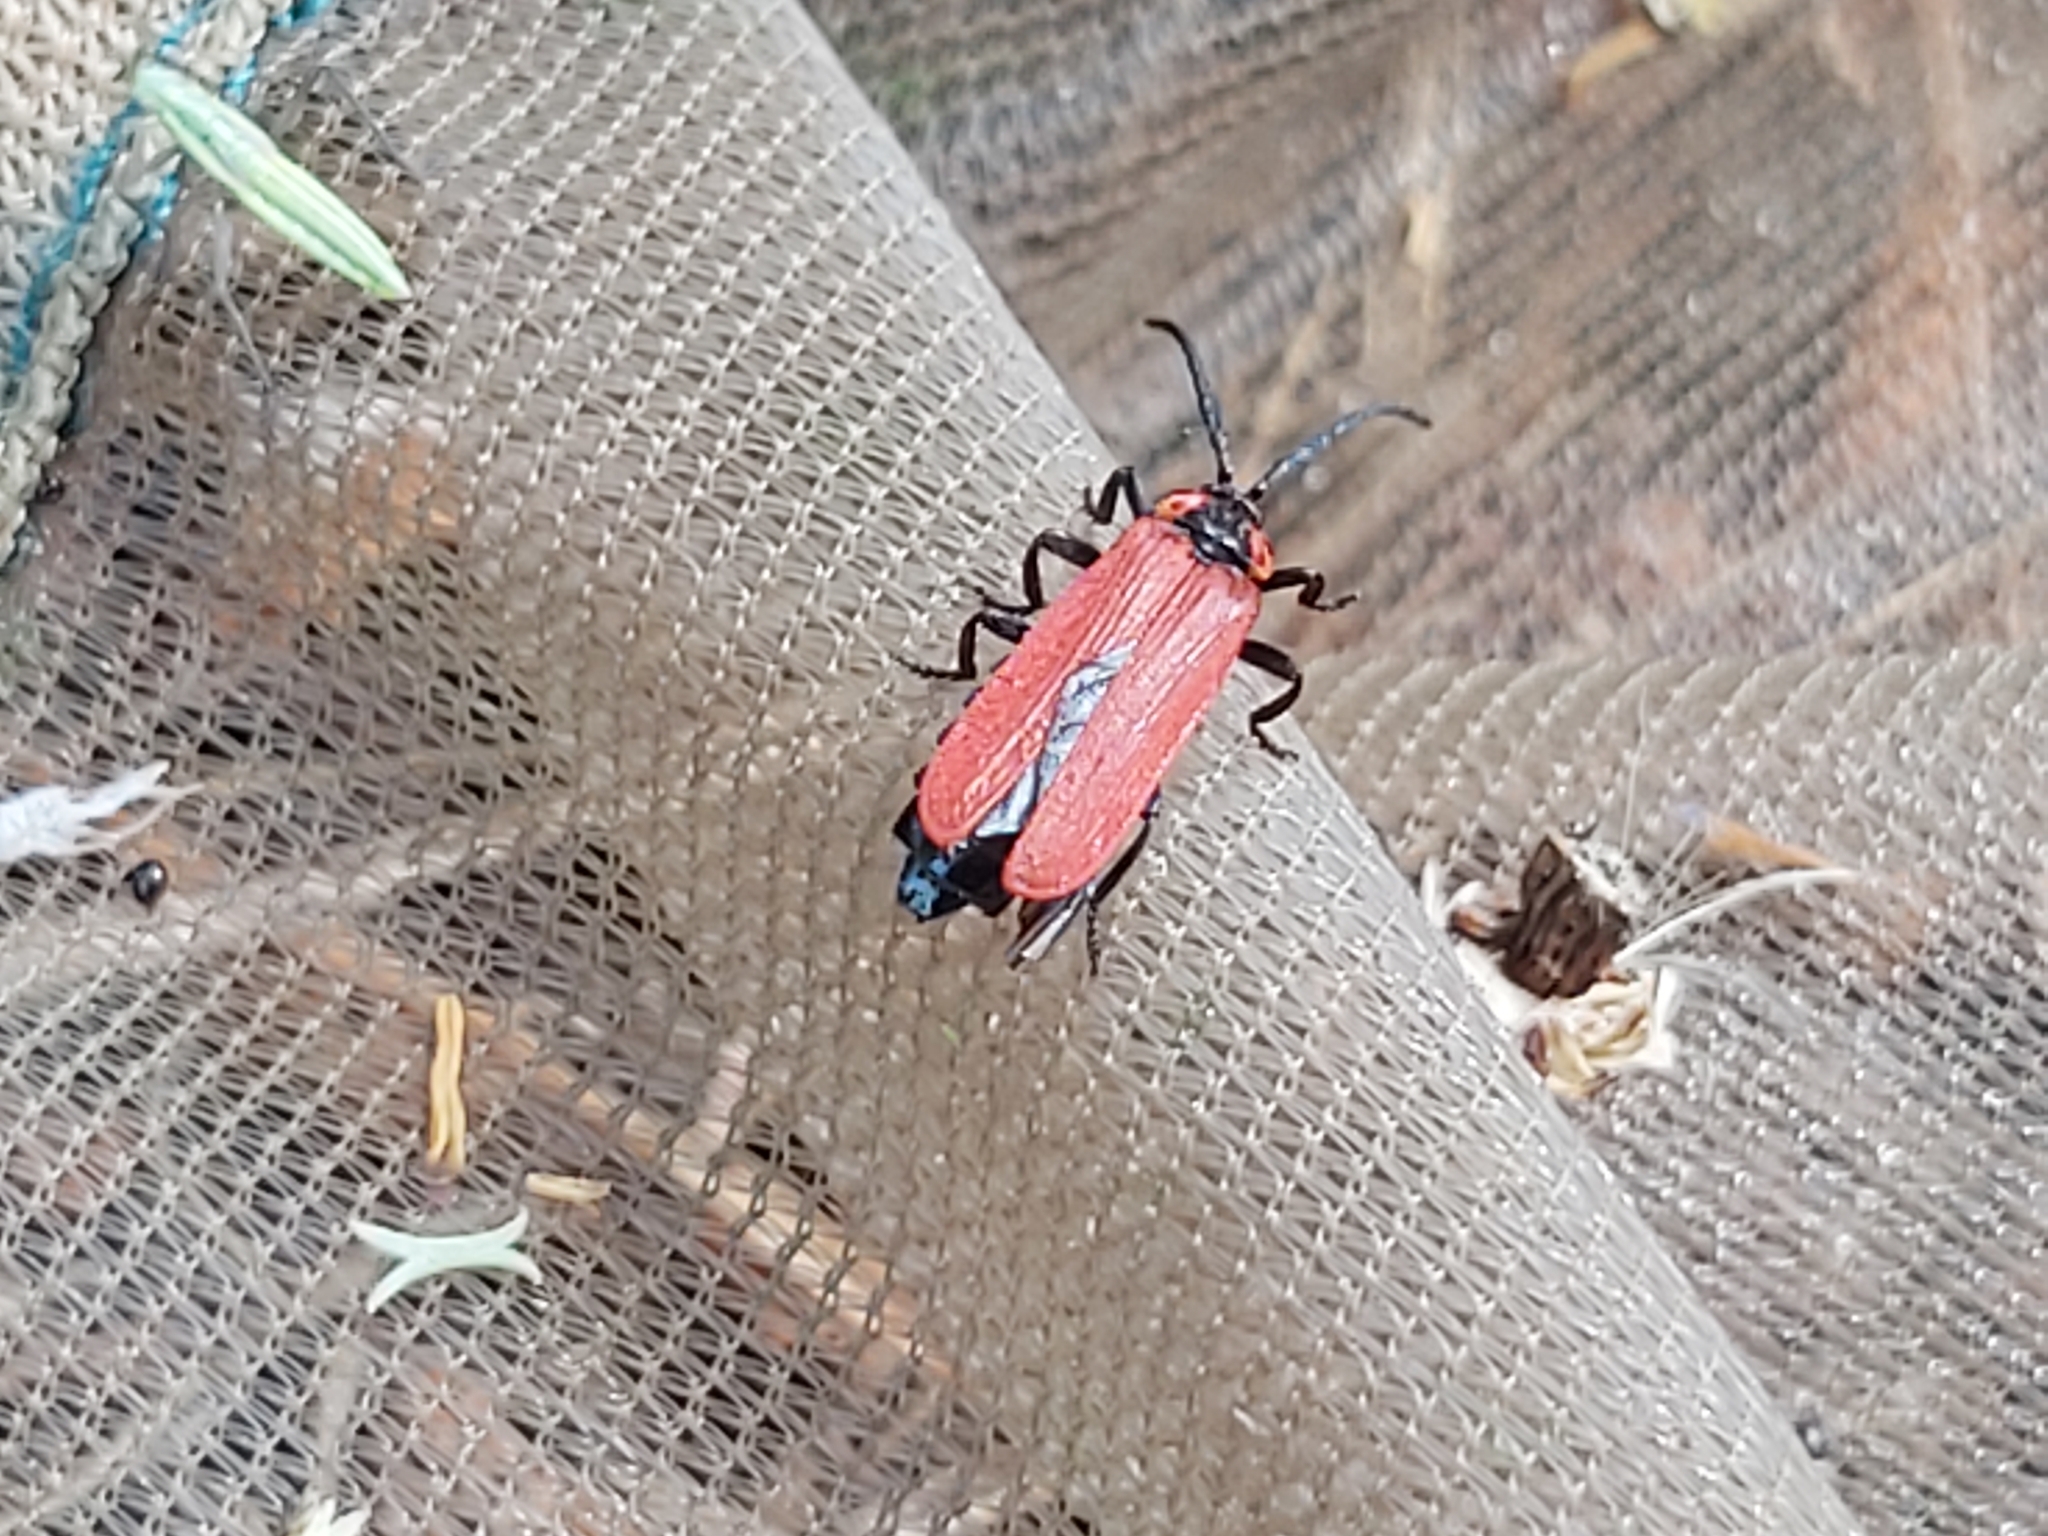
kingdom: Animalia
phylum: Arthropoda
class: Insecta
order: Coleoptera
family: Lycidae
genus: Lygistopterus
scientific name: Lygistopterus sanguineus
